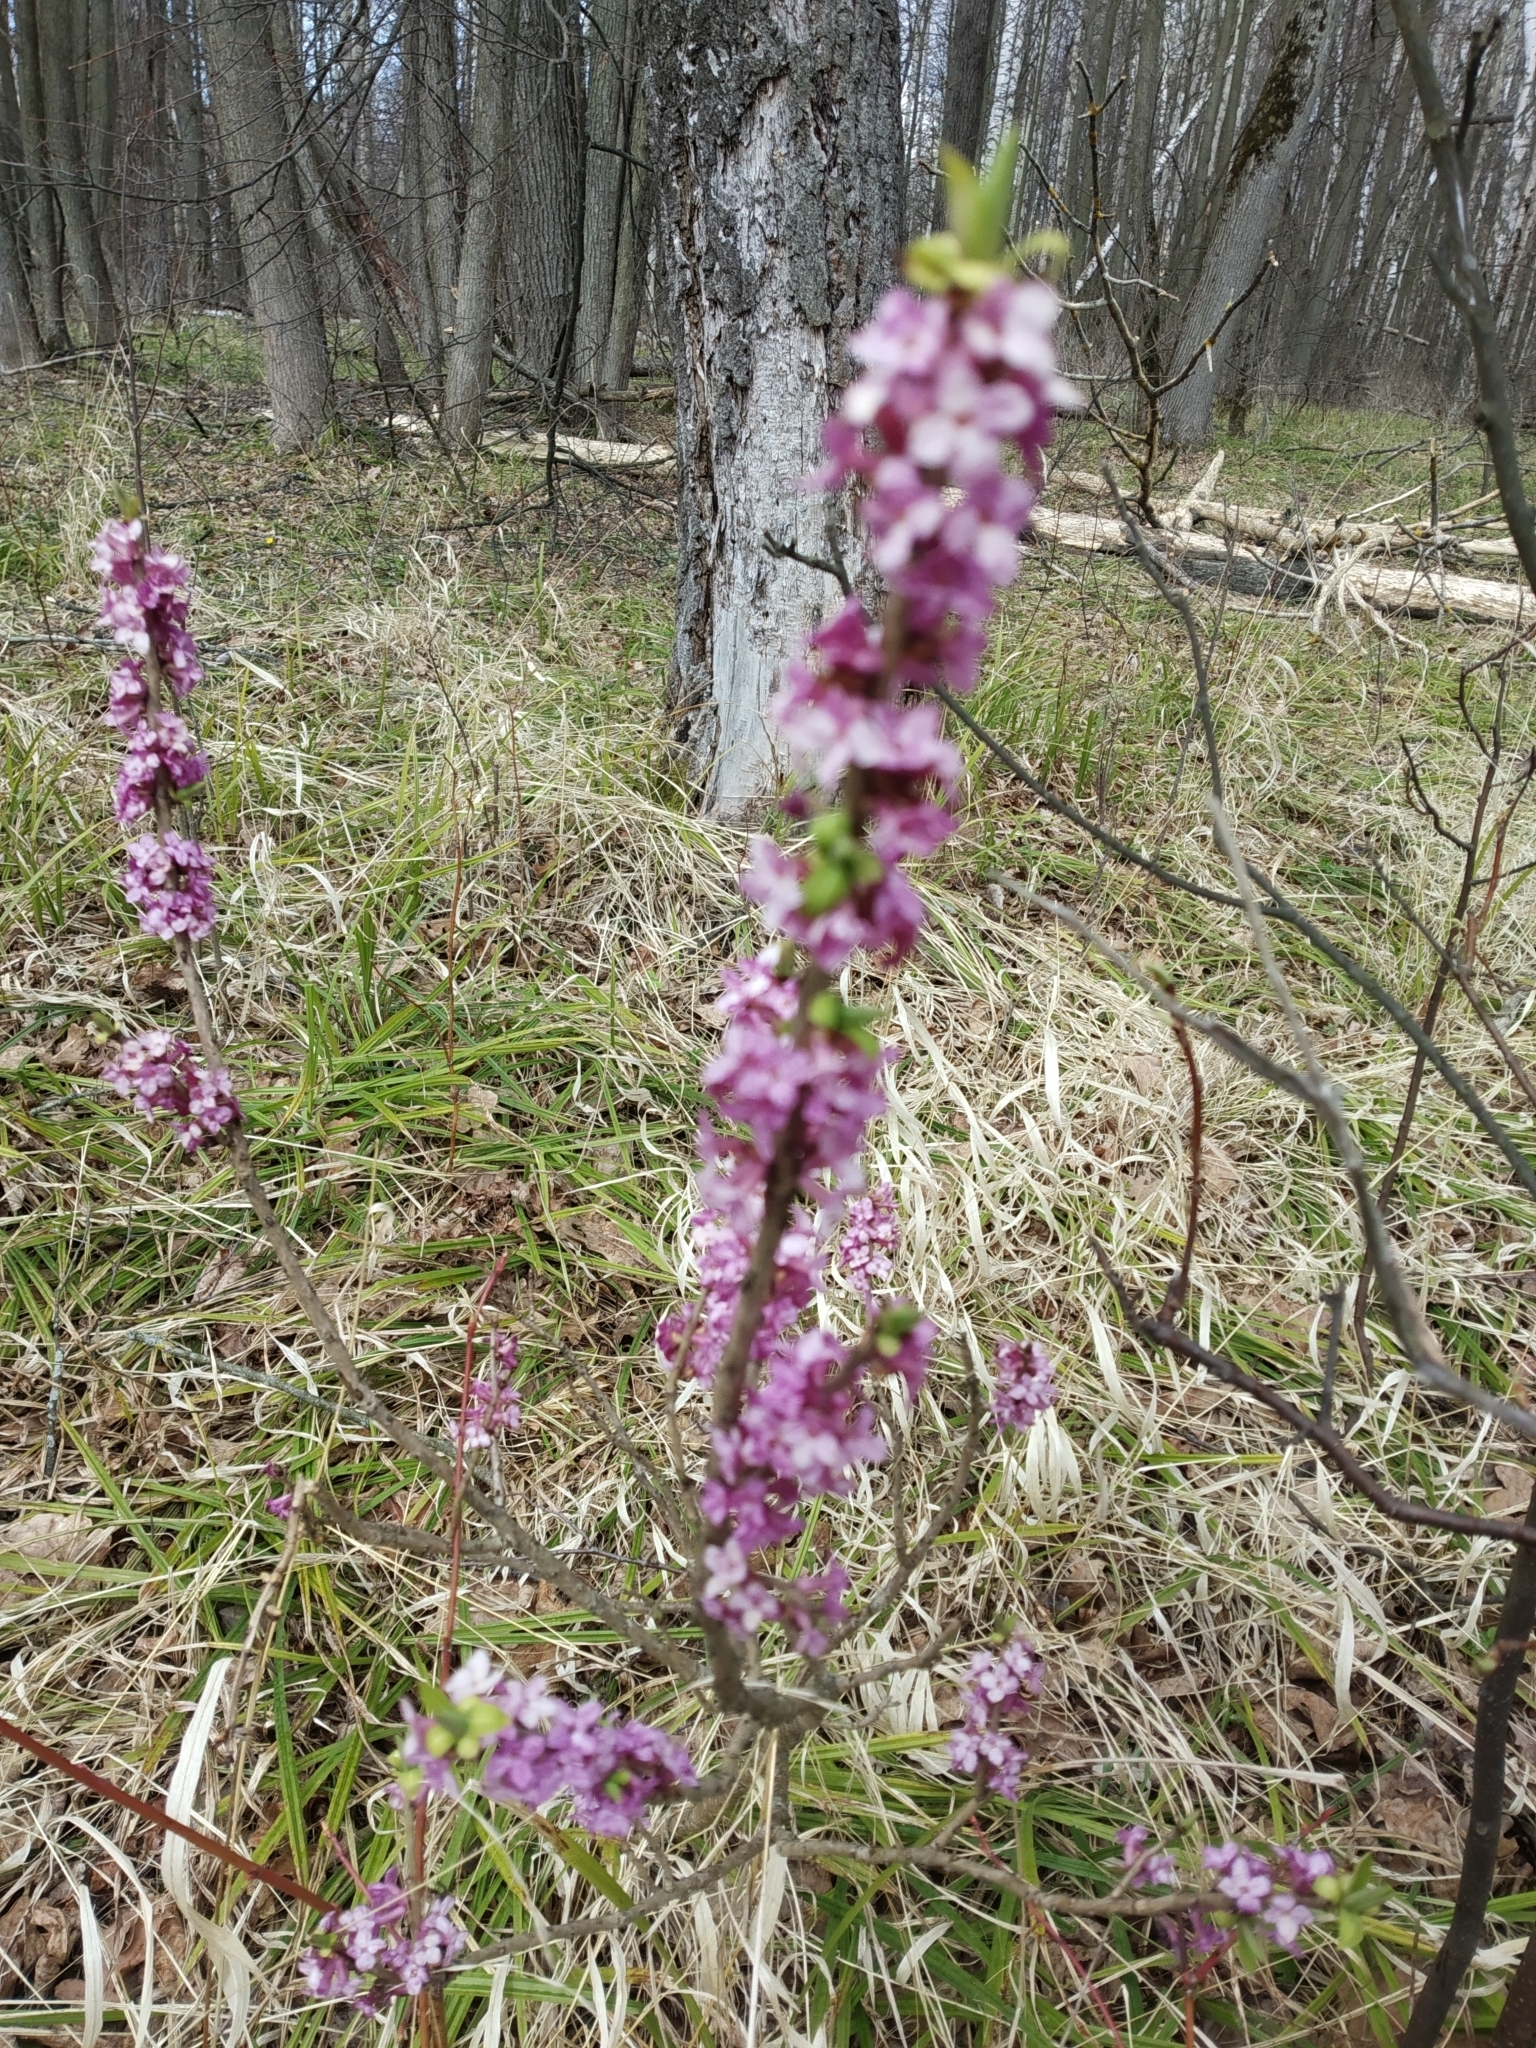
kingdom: Plantae
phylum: Tracheophyta
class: Magnoliopsida
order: Malvales
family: Thymelaeaceae
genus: Daphne
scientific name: Daphne mezereum
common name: Mezereon
